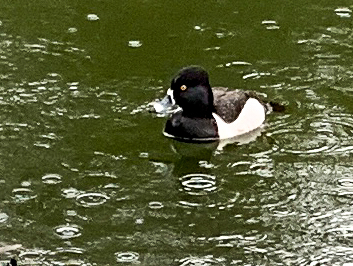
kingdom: Animalia
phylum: Chordata
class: Aves
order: Anseriformes
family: Anatidae
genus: Aythya
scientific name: Aythya collaris
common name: Ring-necked duck
